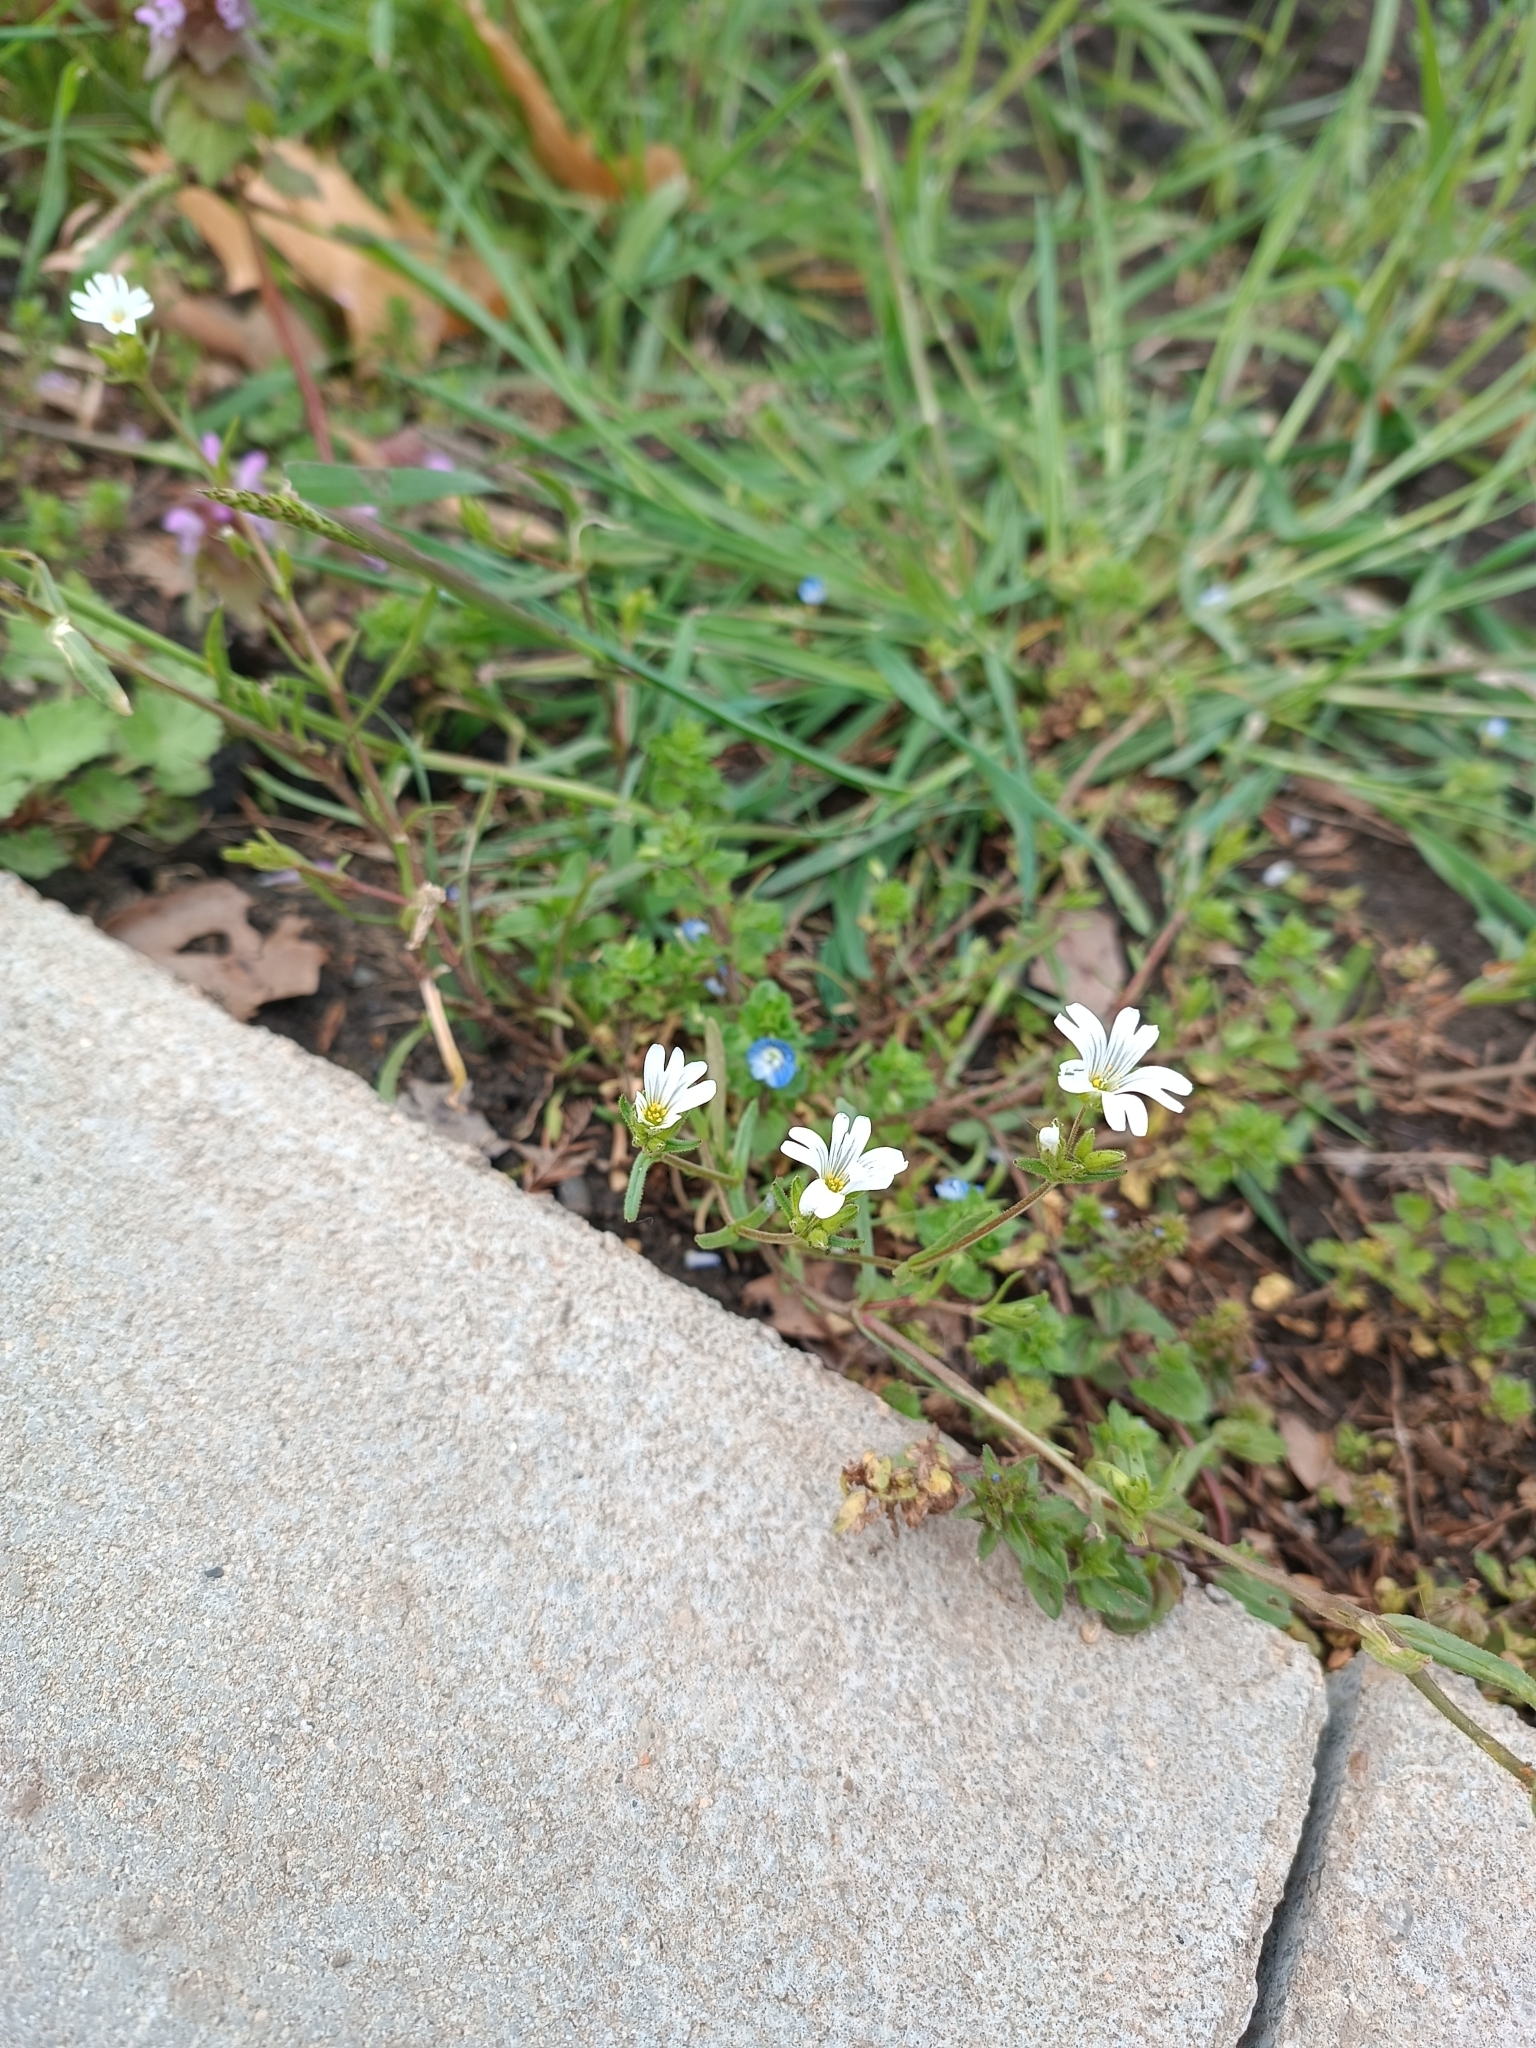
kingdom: Plantae
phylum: Tracheophyta
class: Magnoliopsida
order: Caryophyllales
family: Caryophyllaceae
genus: Dichodon
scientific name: Dichodon viscidum
